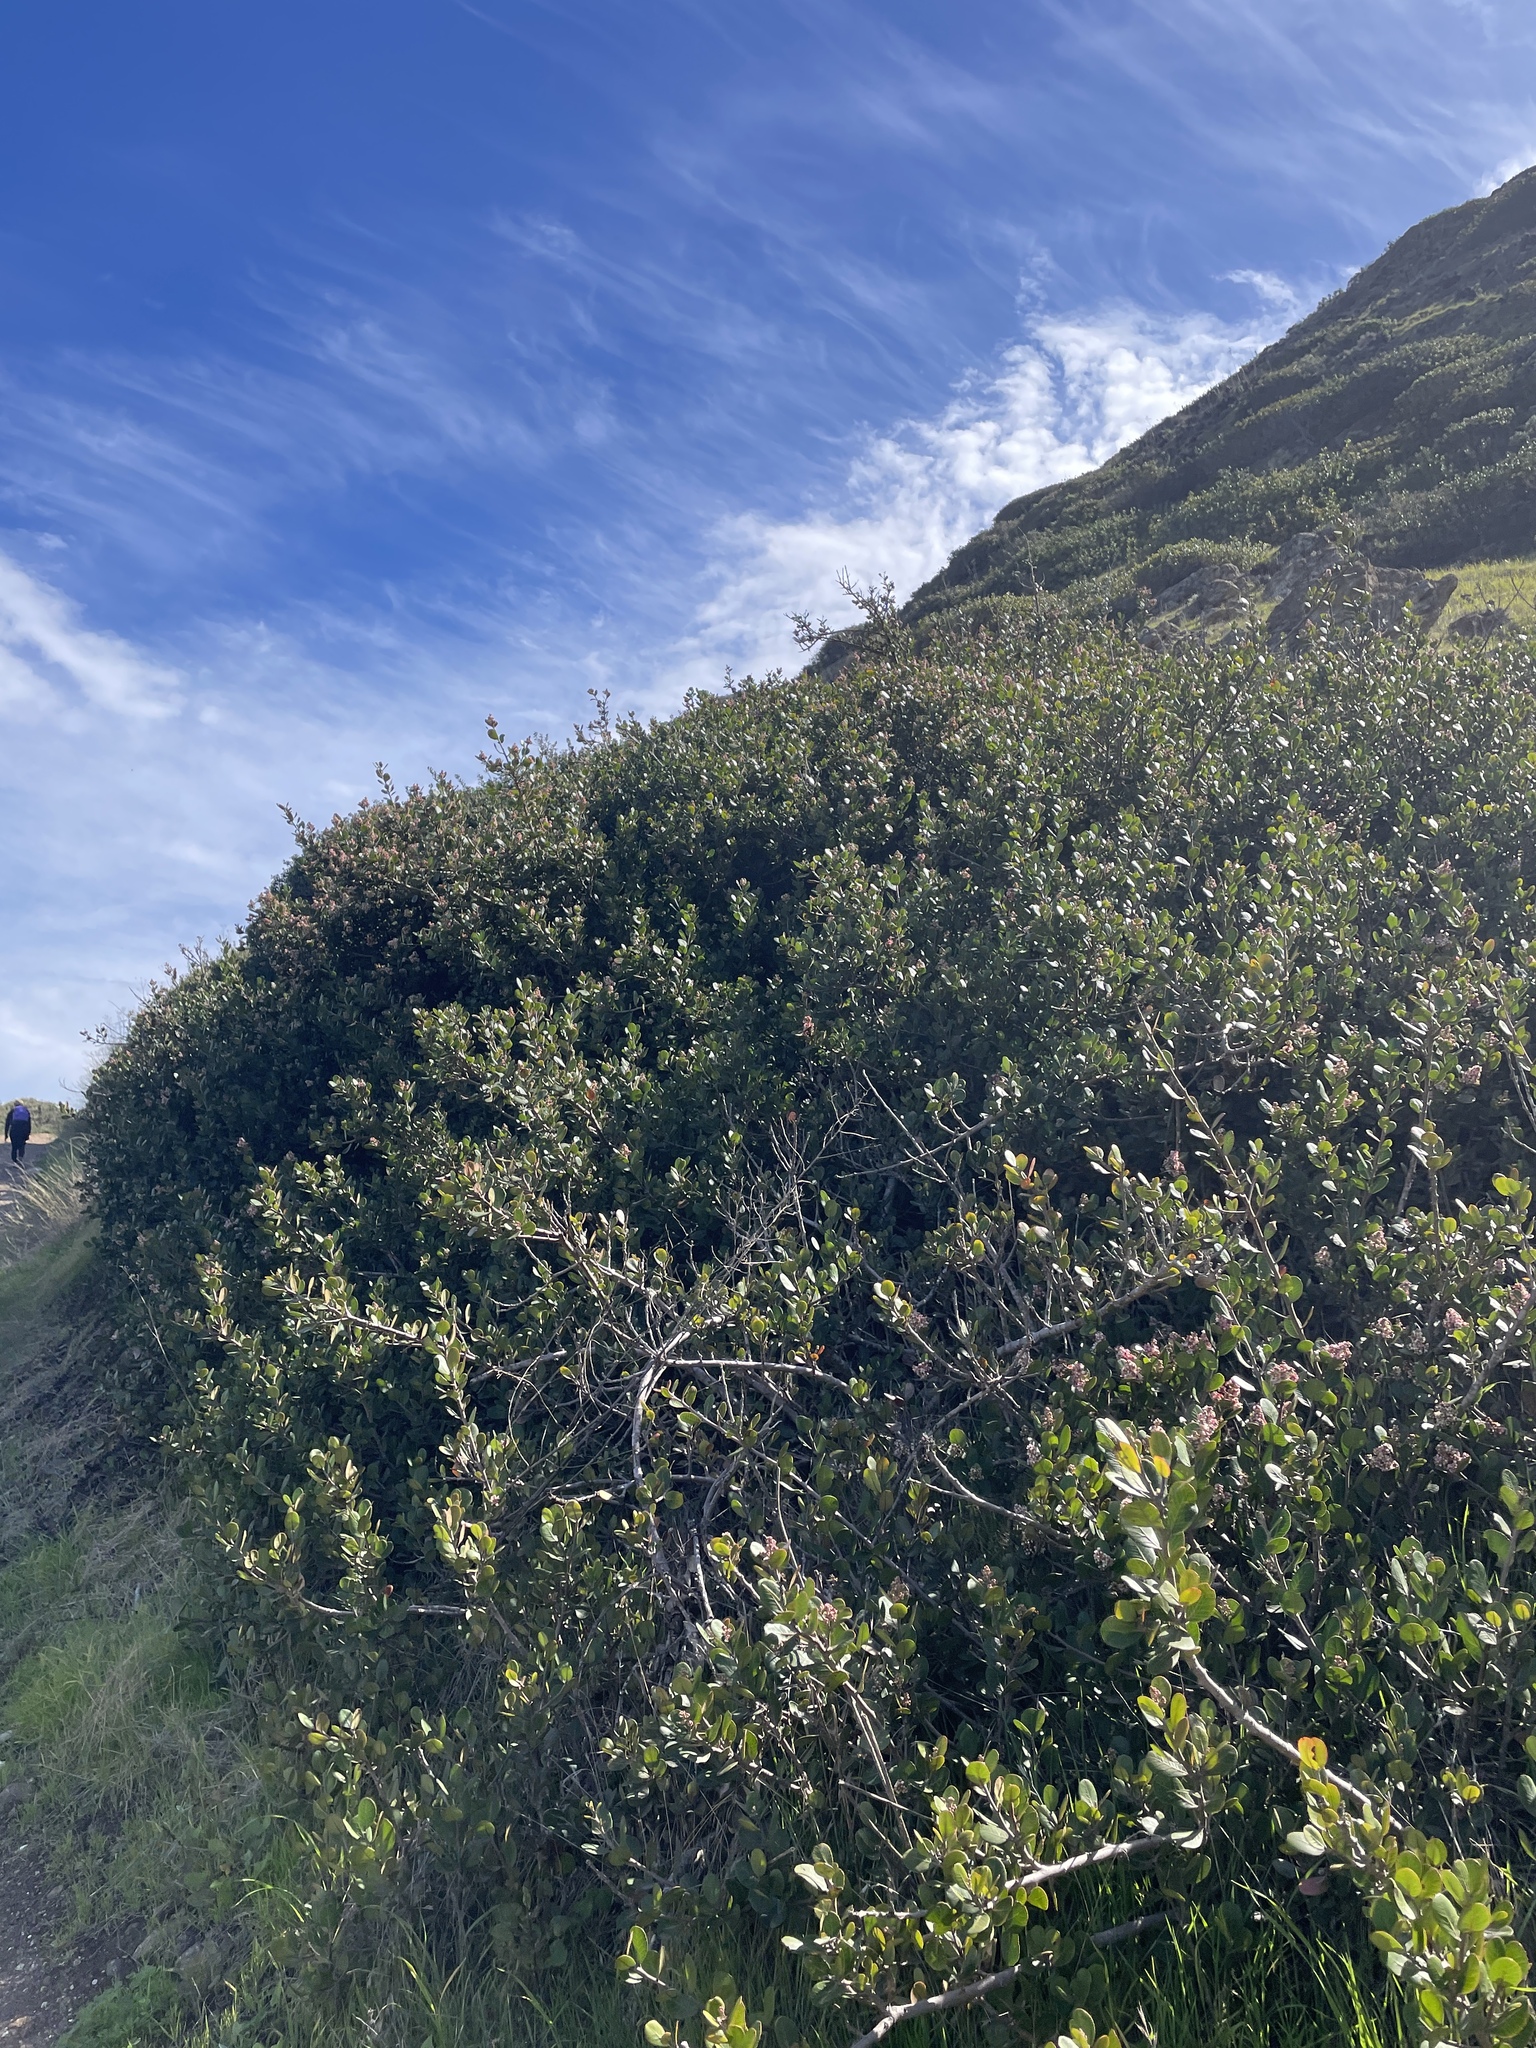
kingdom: Plantae
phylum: Tracheophyta
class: Magnoliopsida
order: Sapindales
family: Anacardiaceae
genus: Rhus
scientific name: Rhus integrifolia
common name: Lemonade sumac
